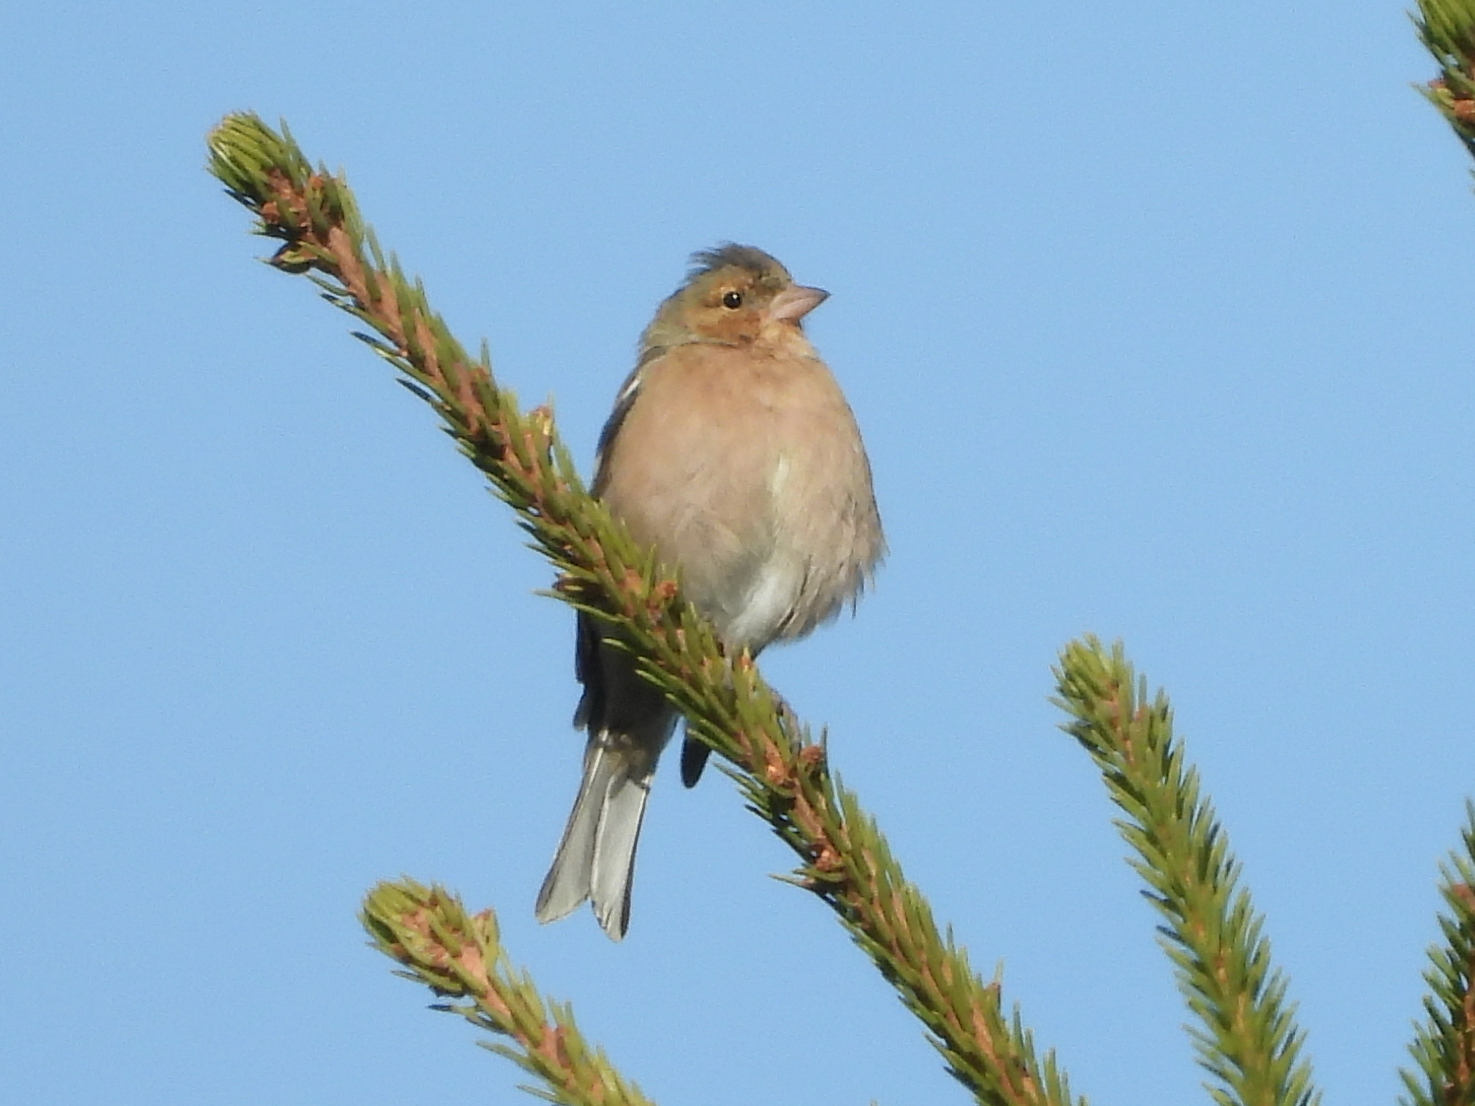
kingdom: Animalia
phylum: Chordata
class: Aves
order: Passeriformes
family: Fringillidae
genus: Fringilla
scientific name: Fringilla coelebs
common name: Common chaffinch
